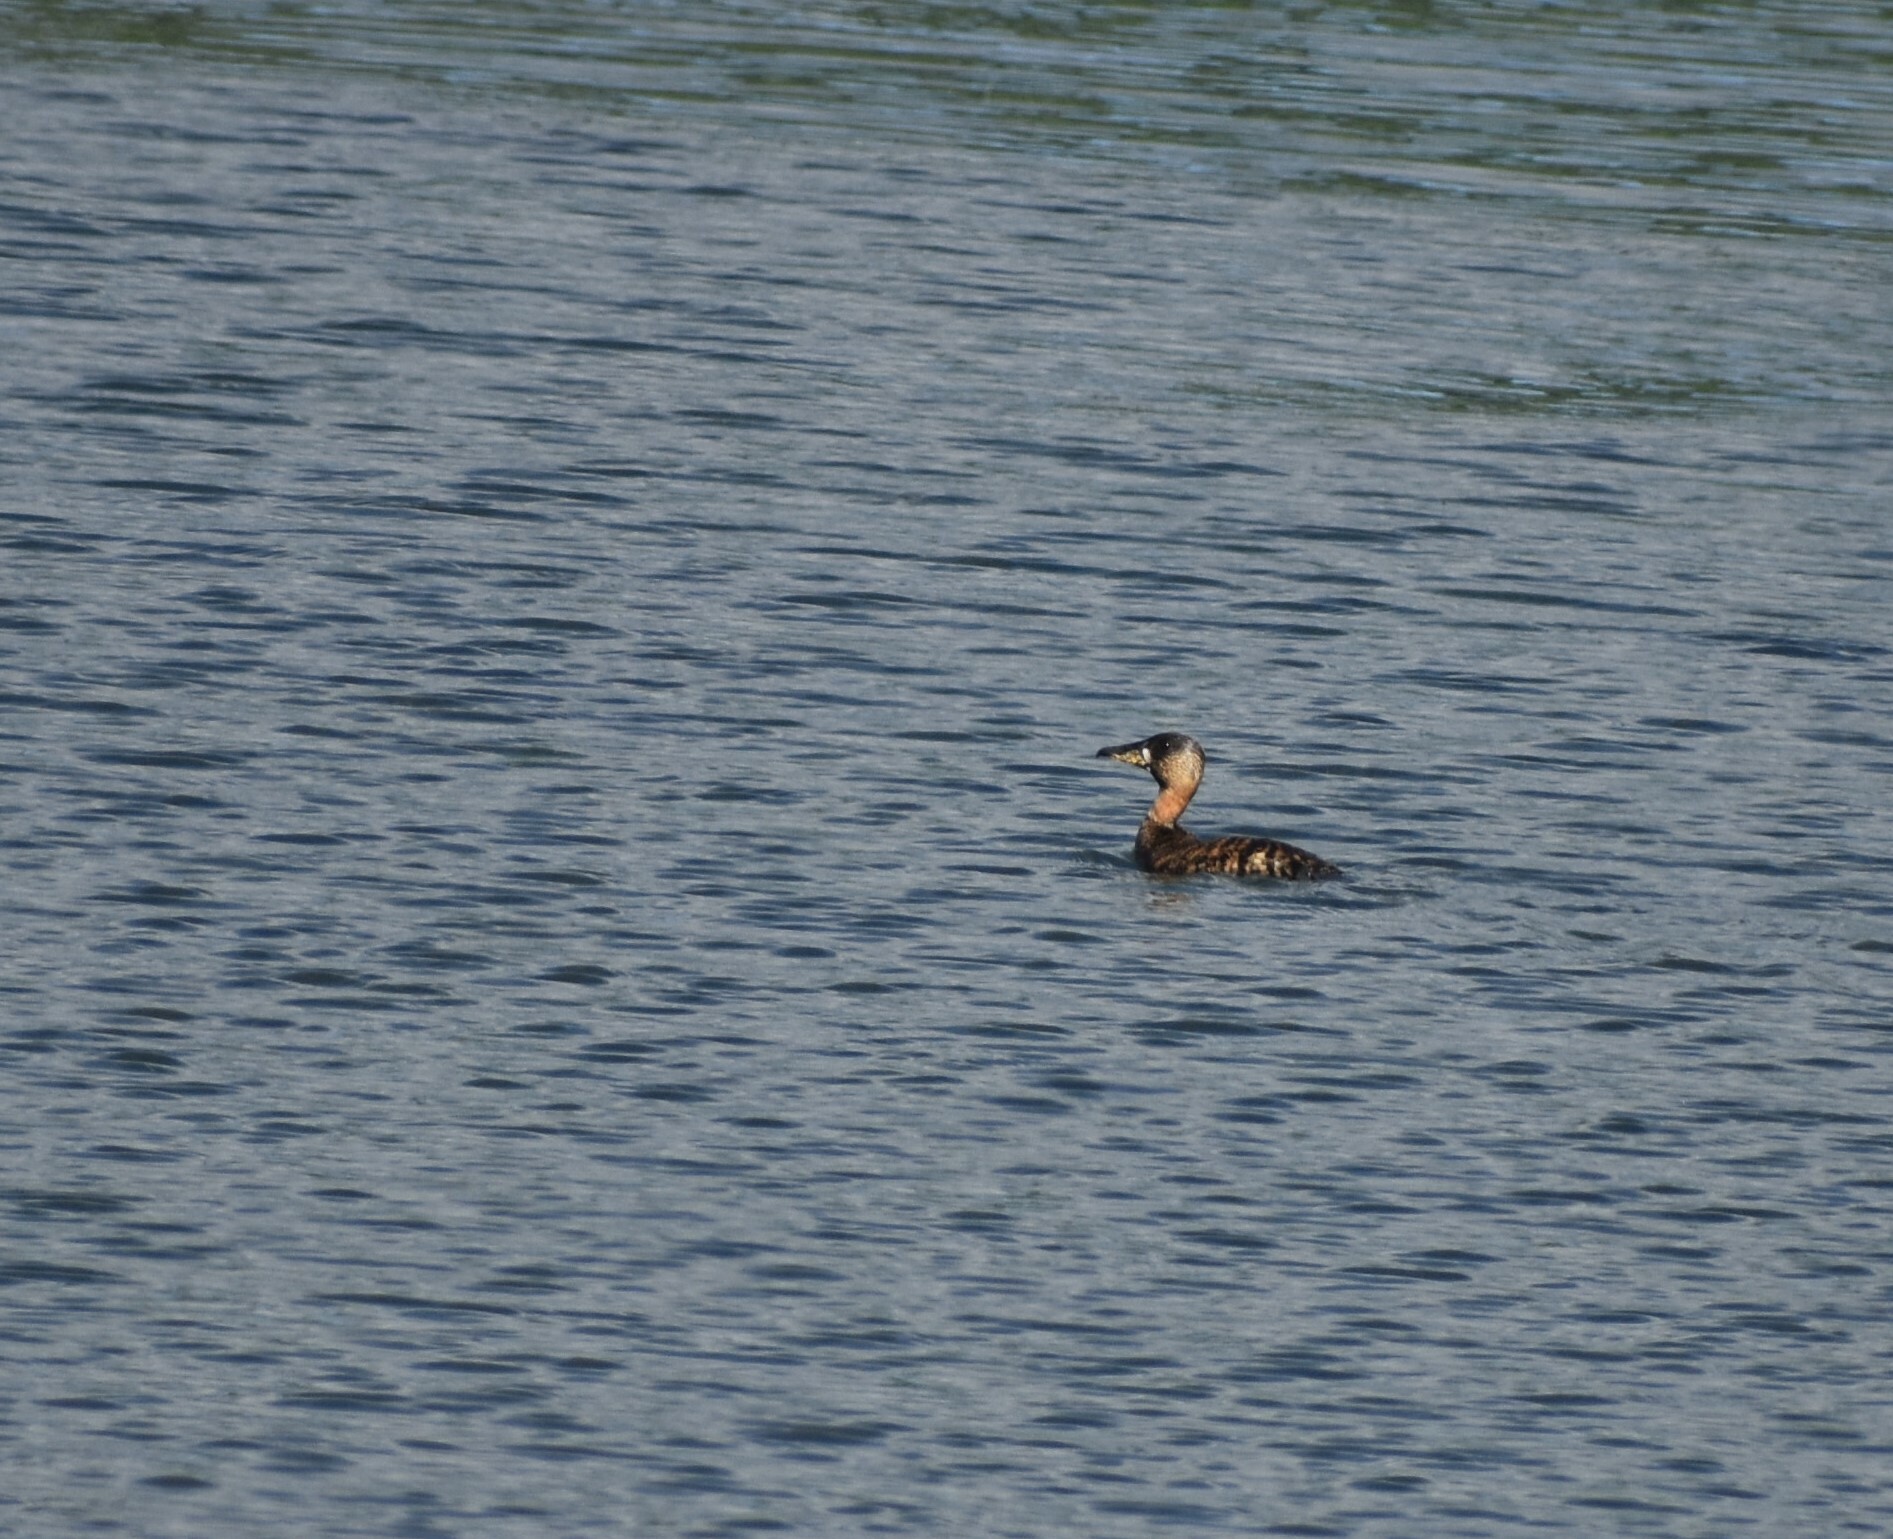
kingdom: Animalia
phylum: Chordata
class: Aves
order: Anseriformes
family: Anatidae
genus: Thalassornis
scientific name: Thalassornis leuconotus
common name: White-backed duck
